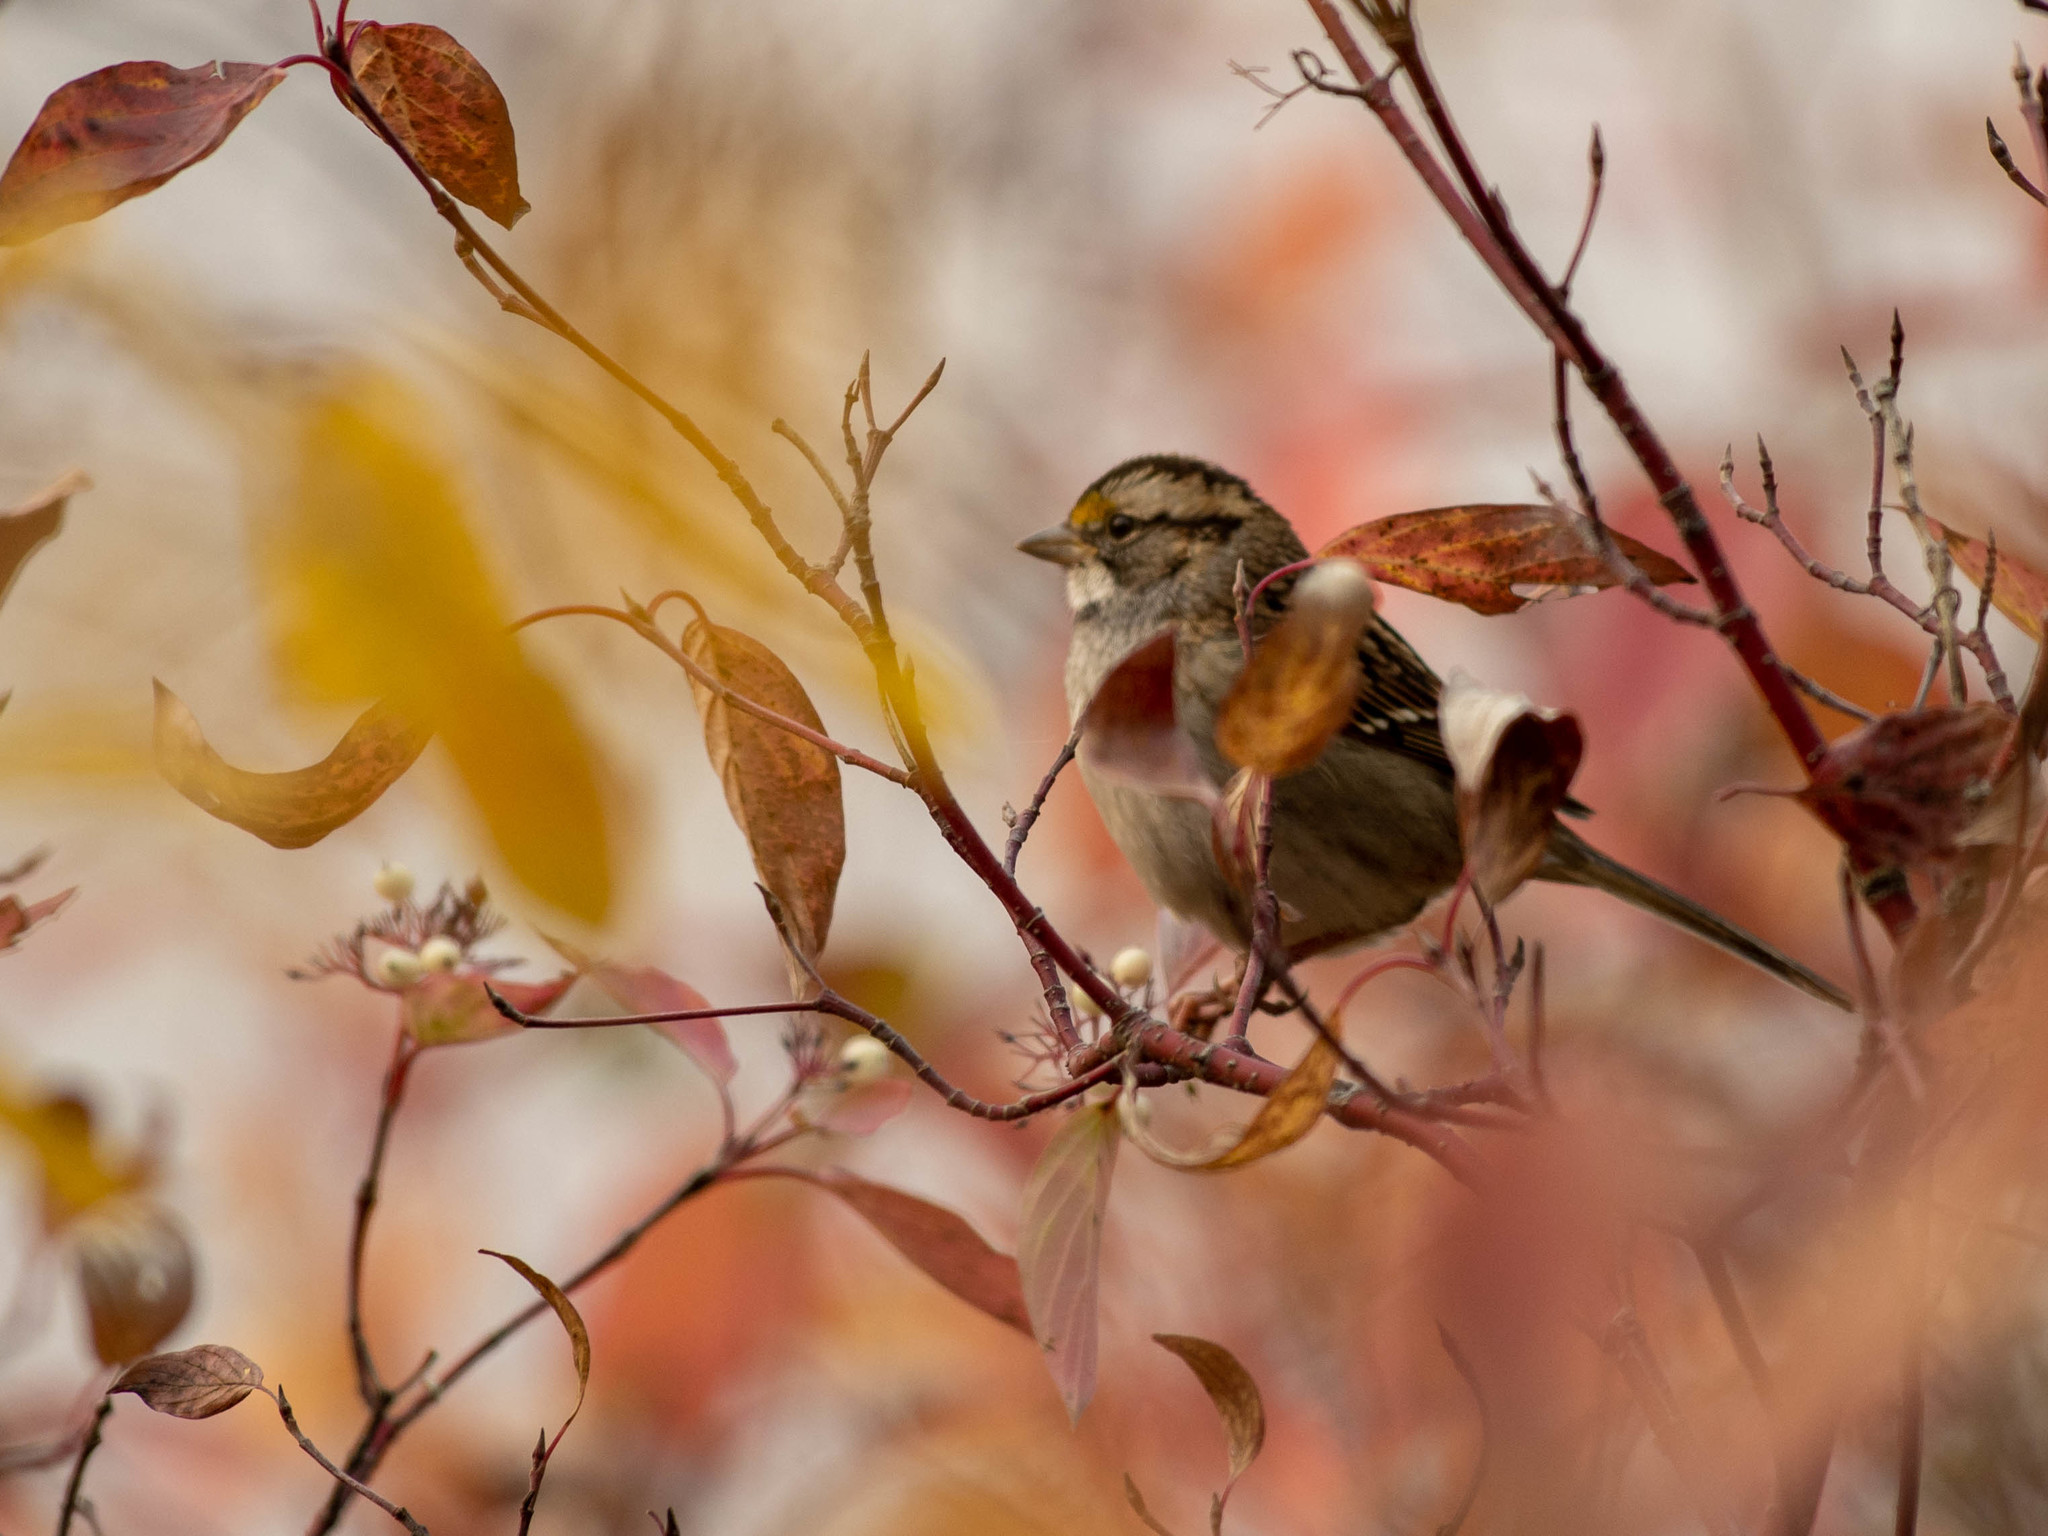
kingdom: Animalia
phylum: Chordata
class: Aves
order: Passeriformes
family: Passerellidae
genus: Zonotrichia
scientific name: Zonotrichia albicollis
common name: White-throated sparrow
